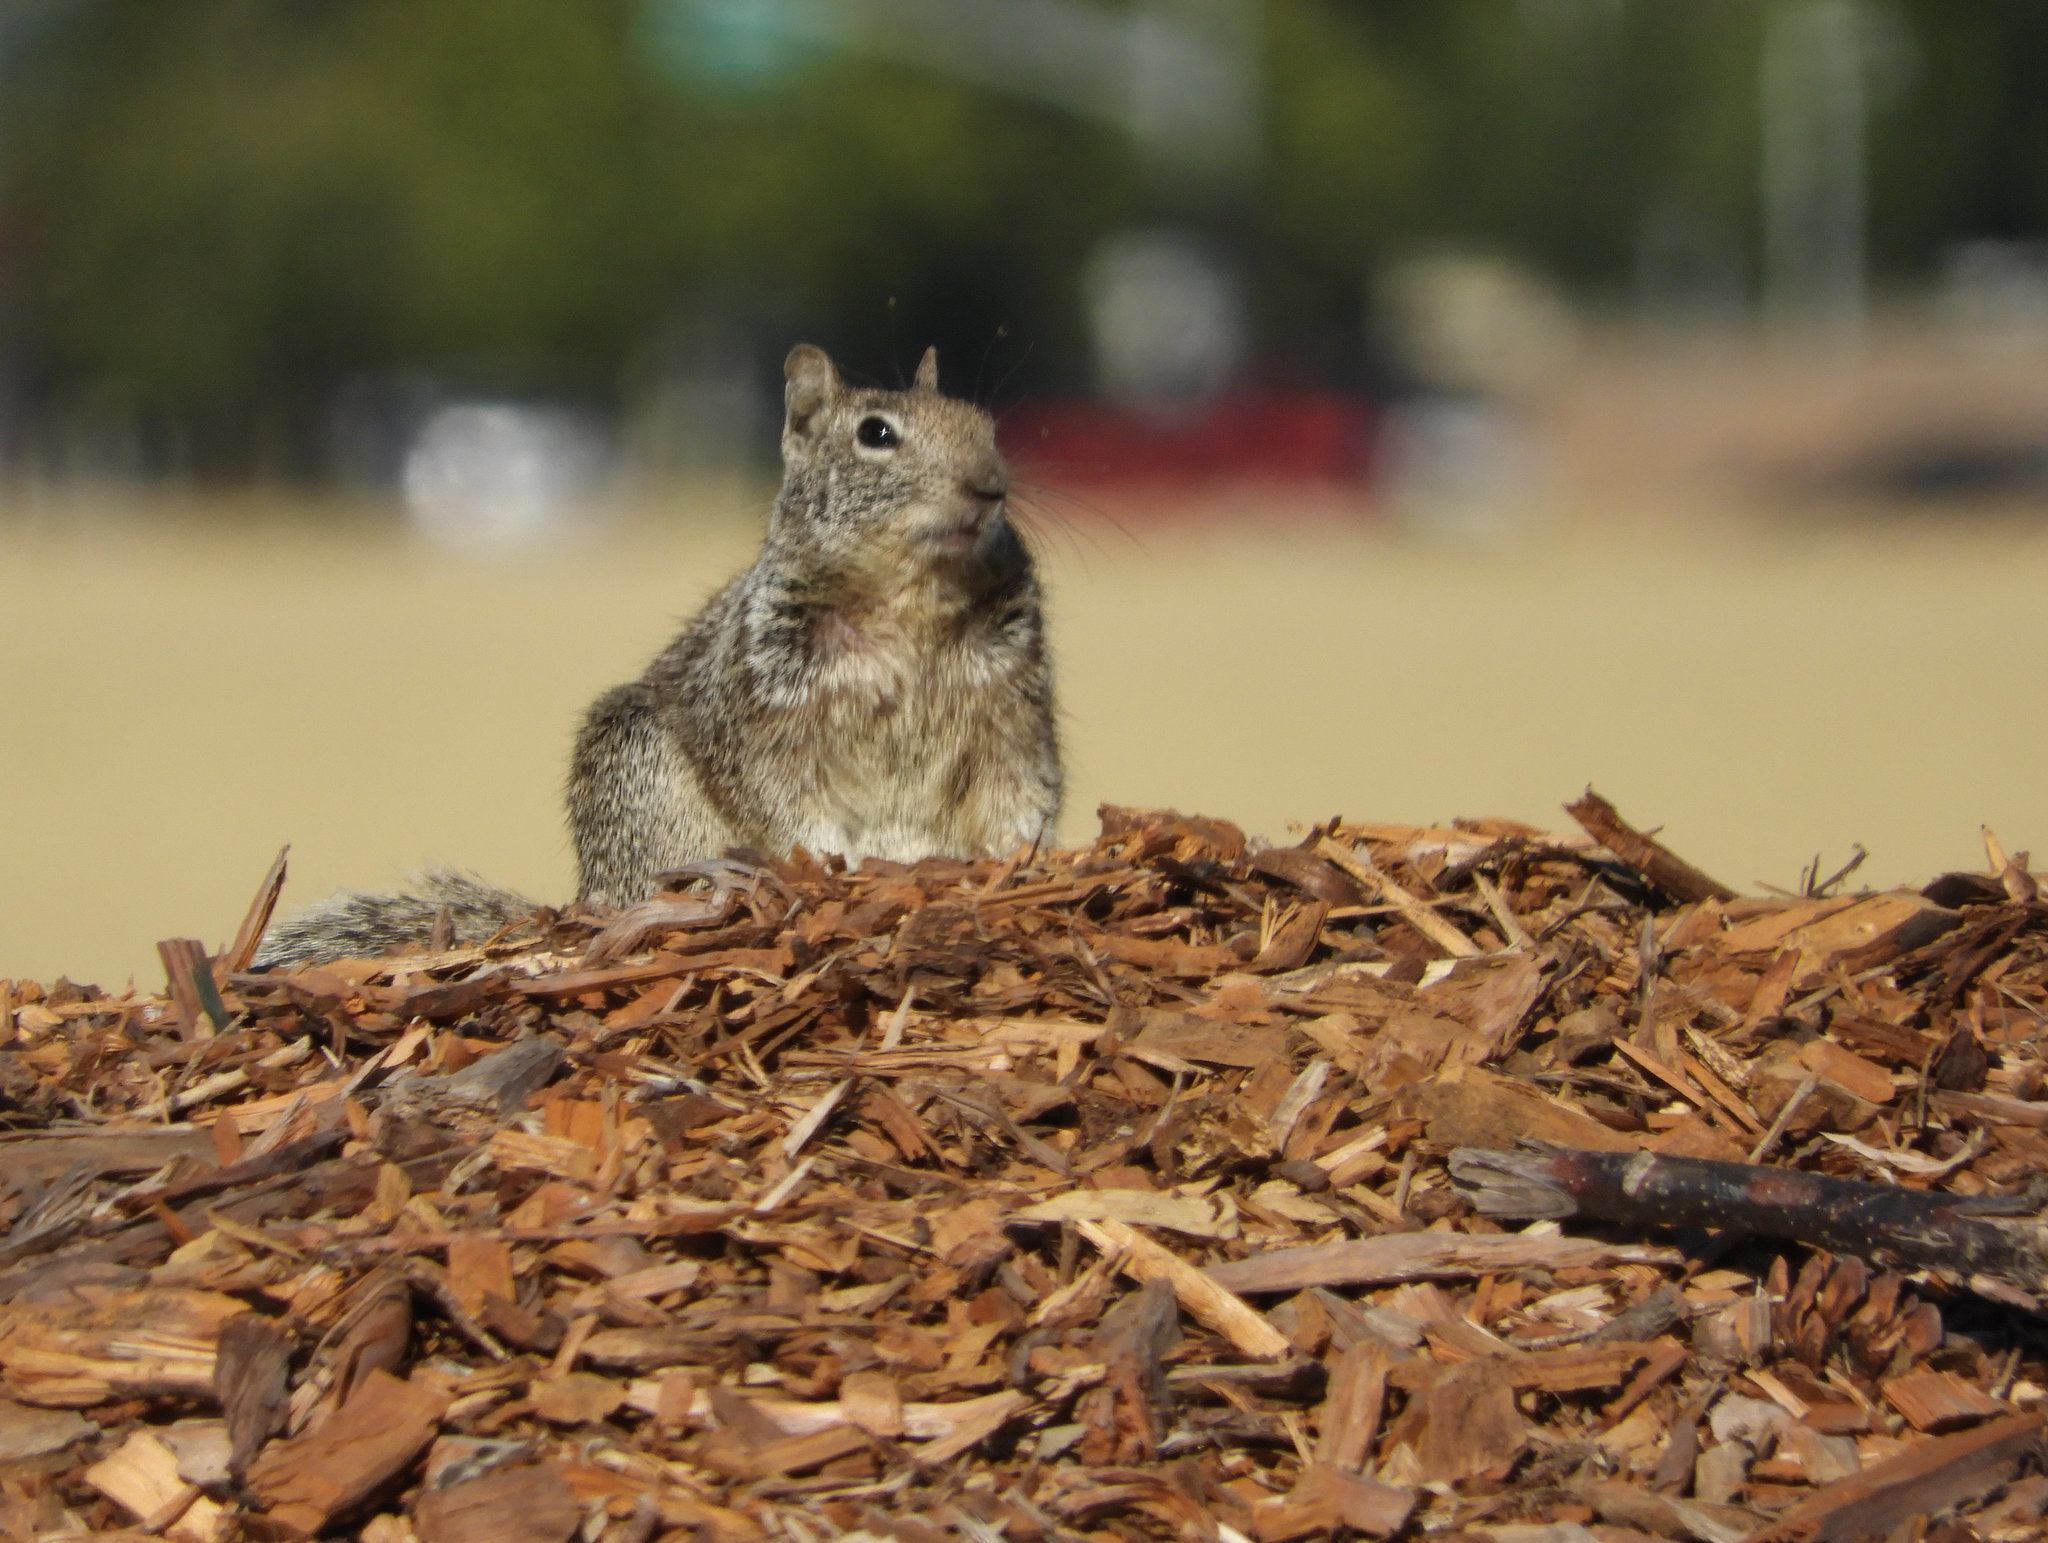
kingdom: Animalia
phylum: Chordata
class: Mammalia
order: Rodentia
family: Sciuridae
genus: Otospermophilus
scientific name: Otospermophilus beecheyi
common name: California ground squirrel
